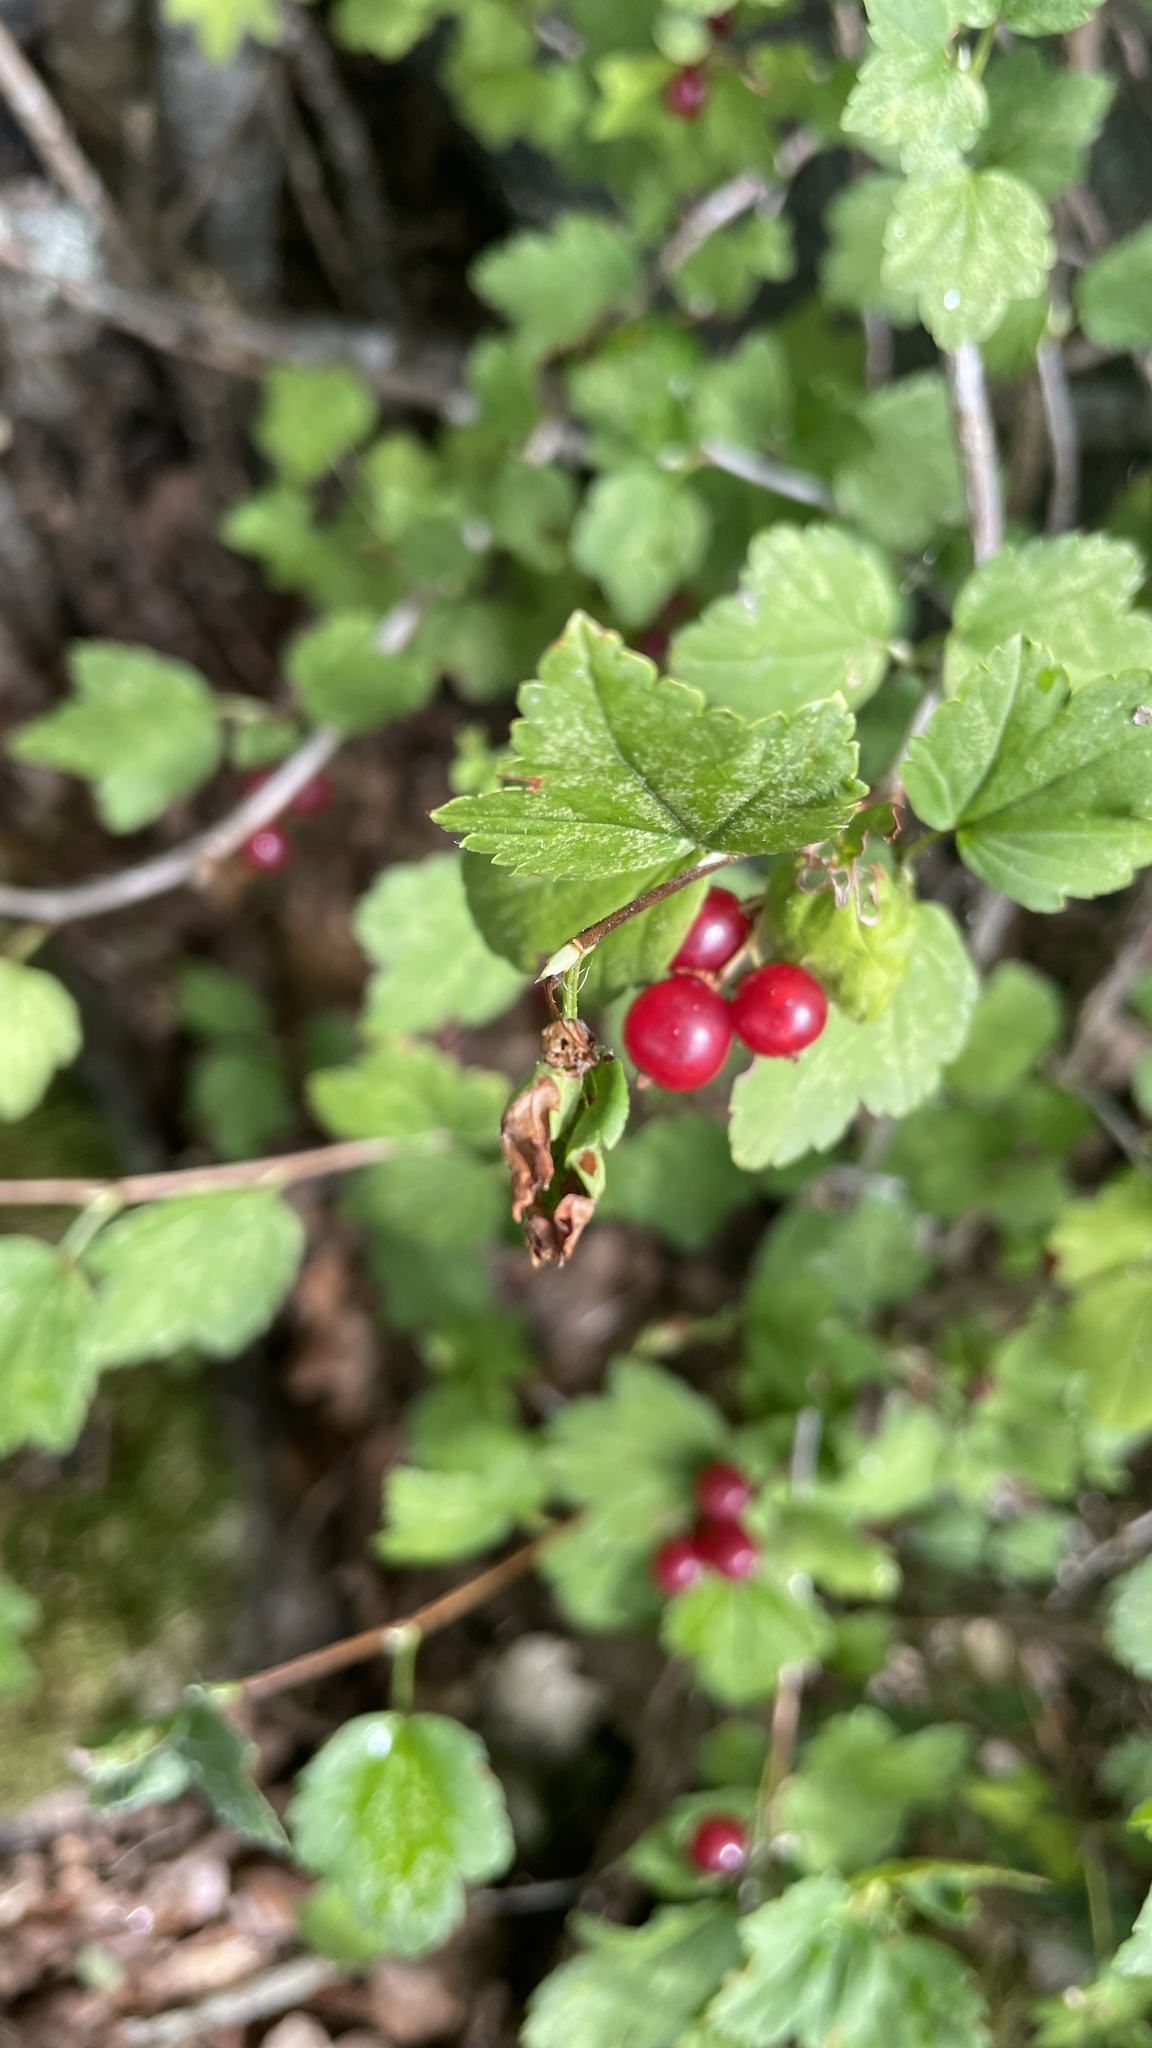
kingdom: Plantae
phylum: Tracheophyta
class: Magnoliopsida
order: Saxifragales
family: Grossulariaceae
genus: Ribes
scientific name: Ribes alpinum
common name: Alpine currant
